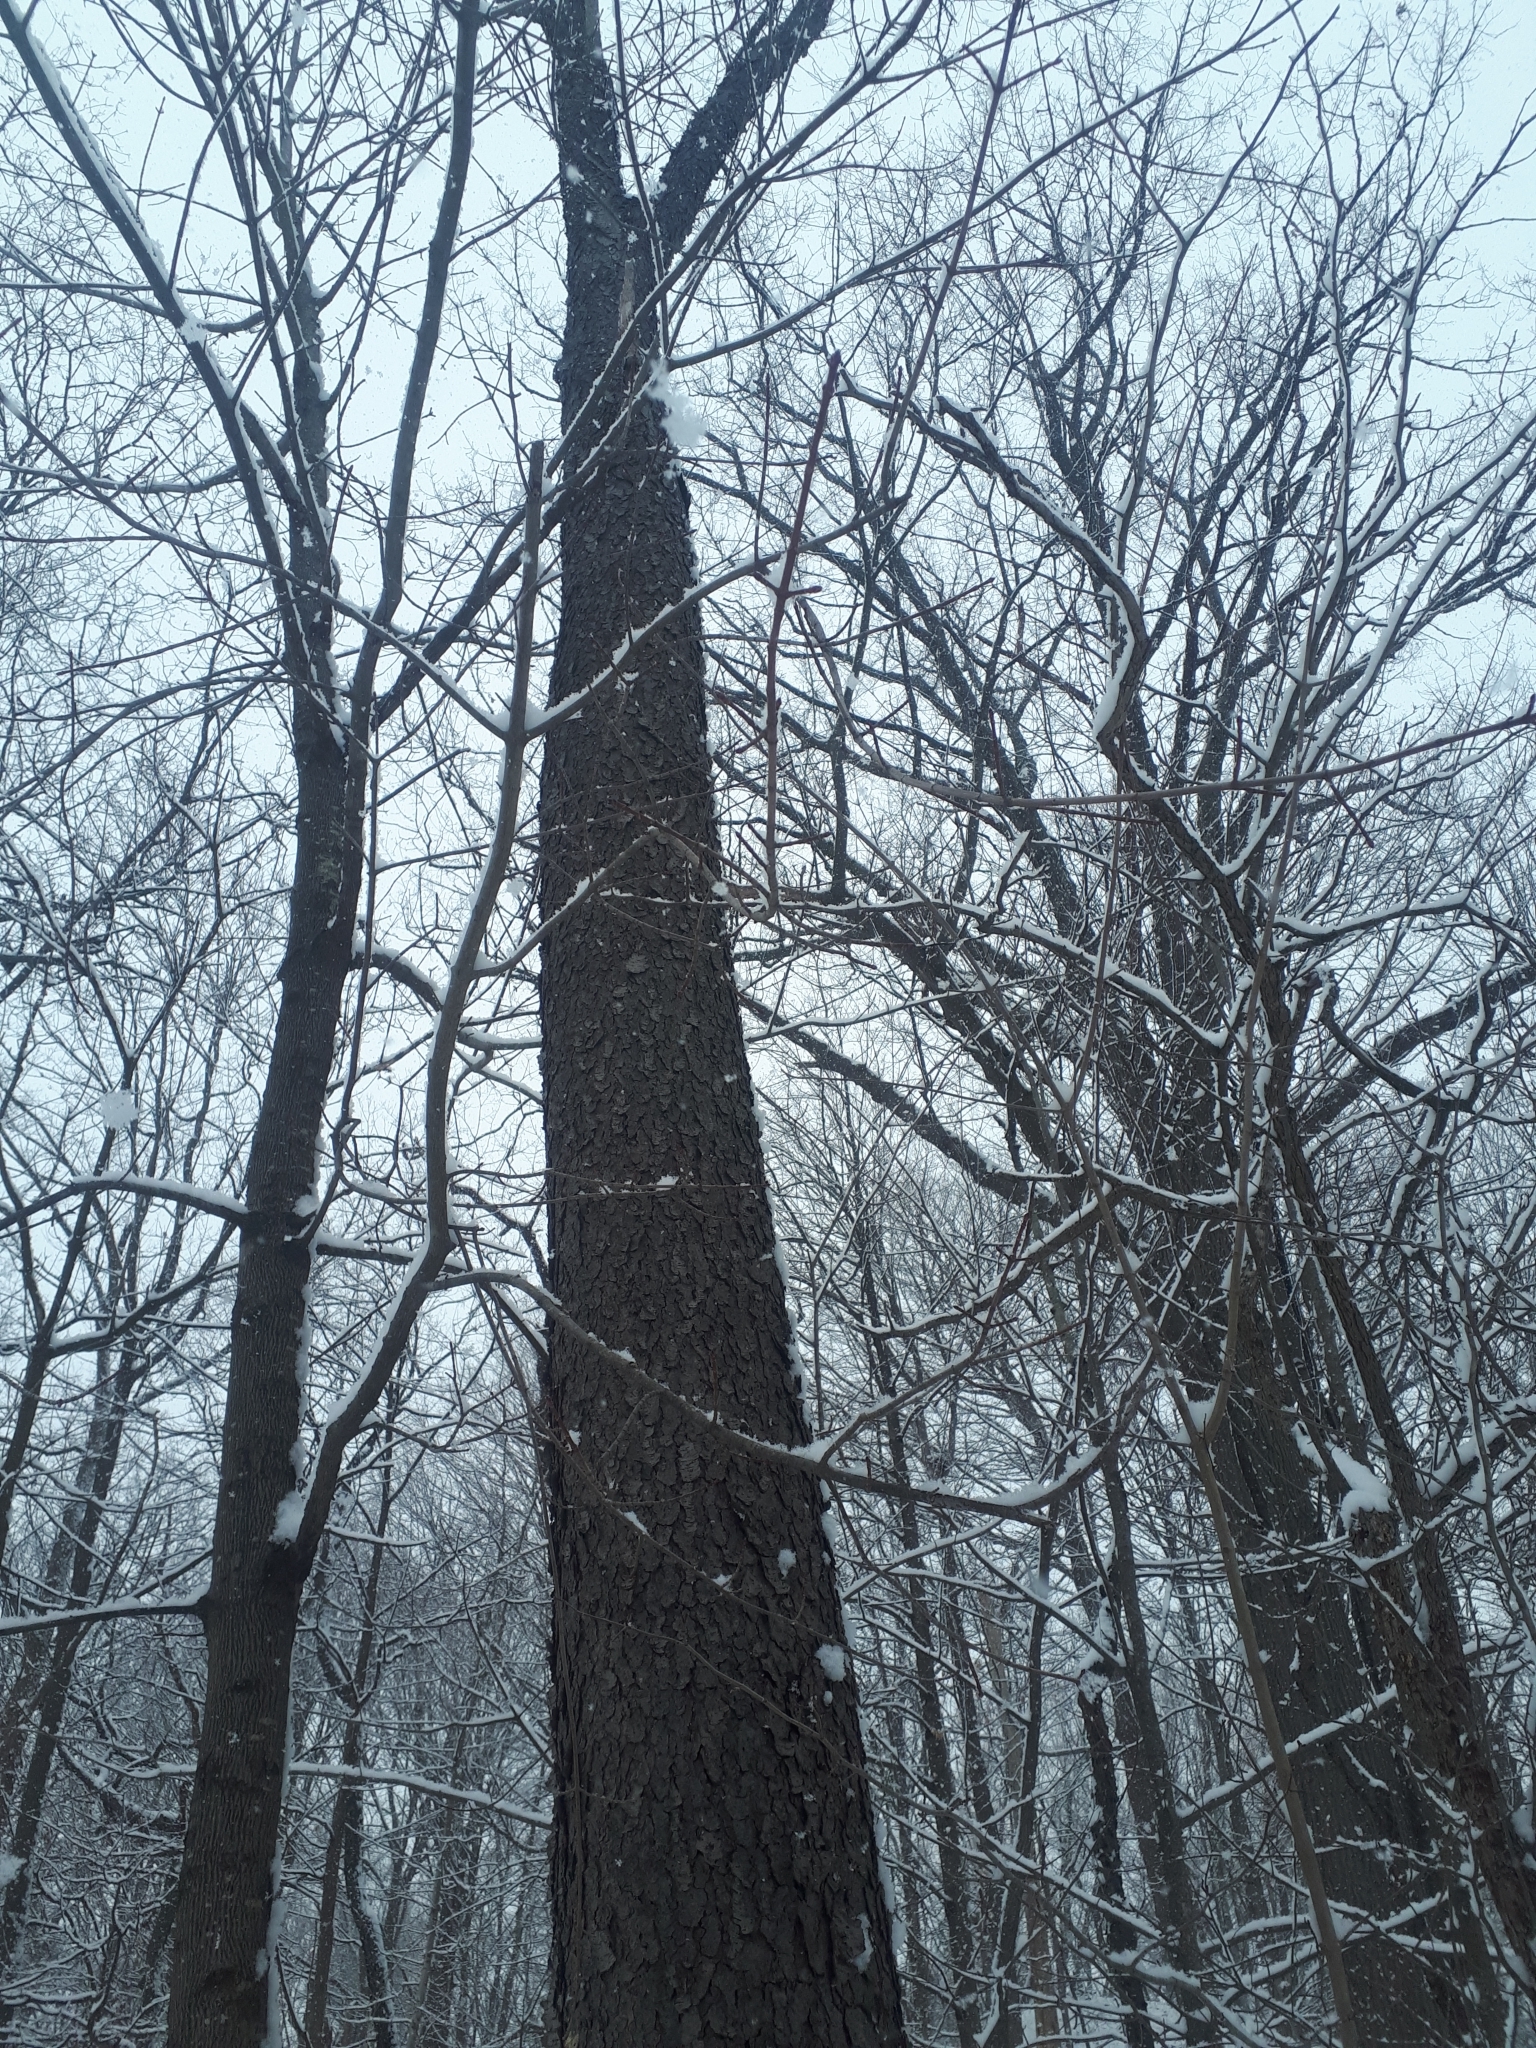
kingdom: Plantae
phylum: Tracheophyta
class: Magnoliopsida
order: Rosales
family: Rosaceae
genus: Prunus
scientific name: Prunus serotina
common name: Black cherry
